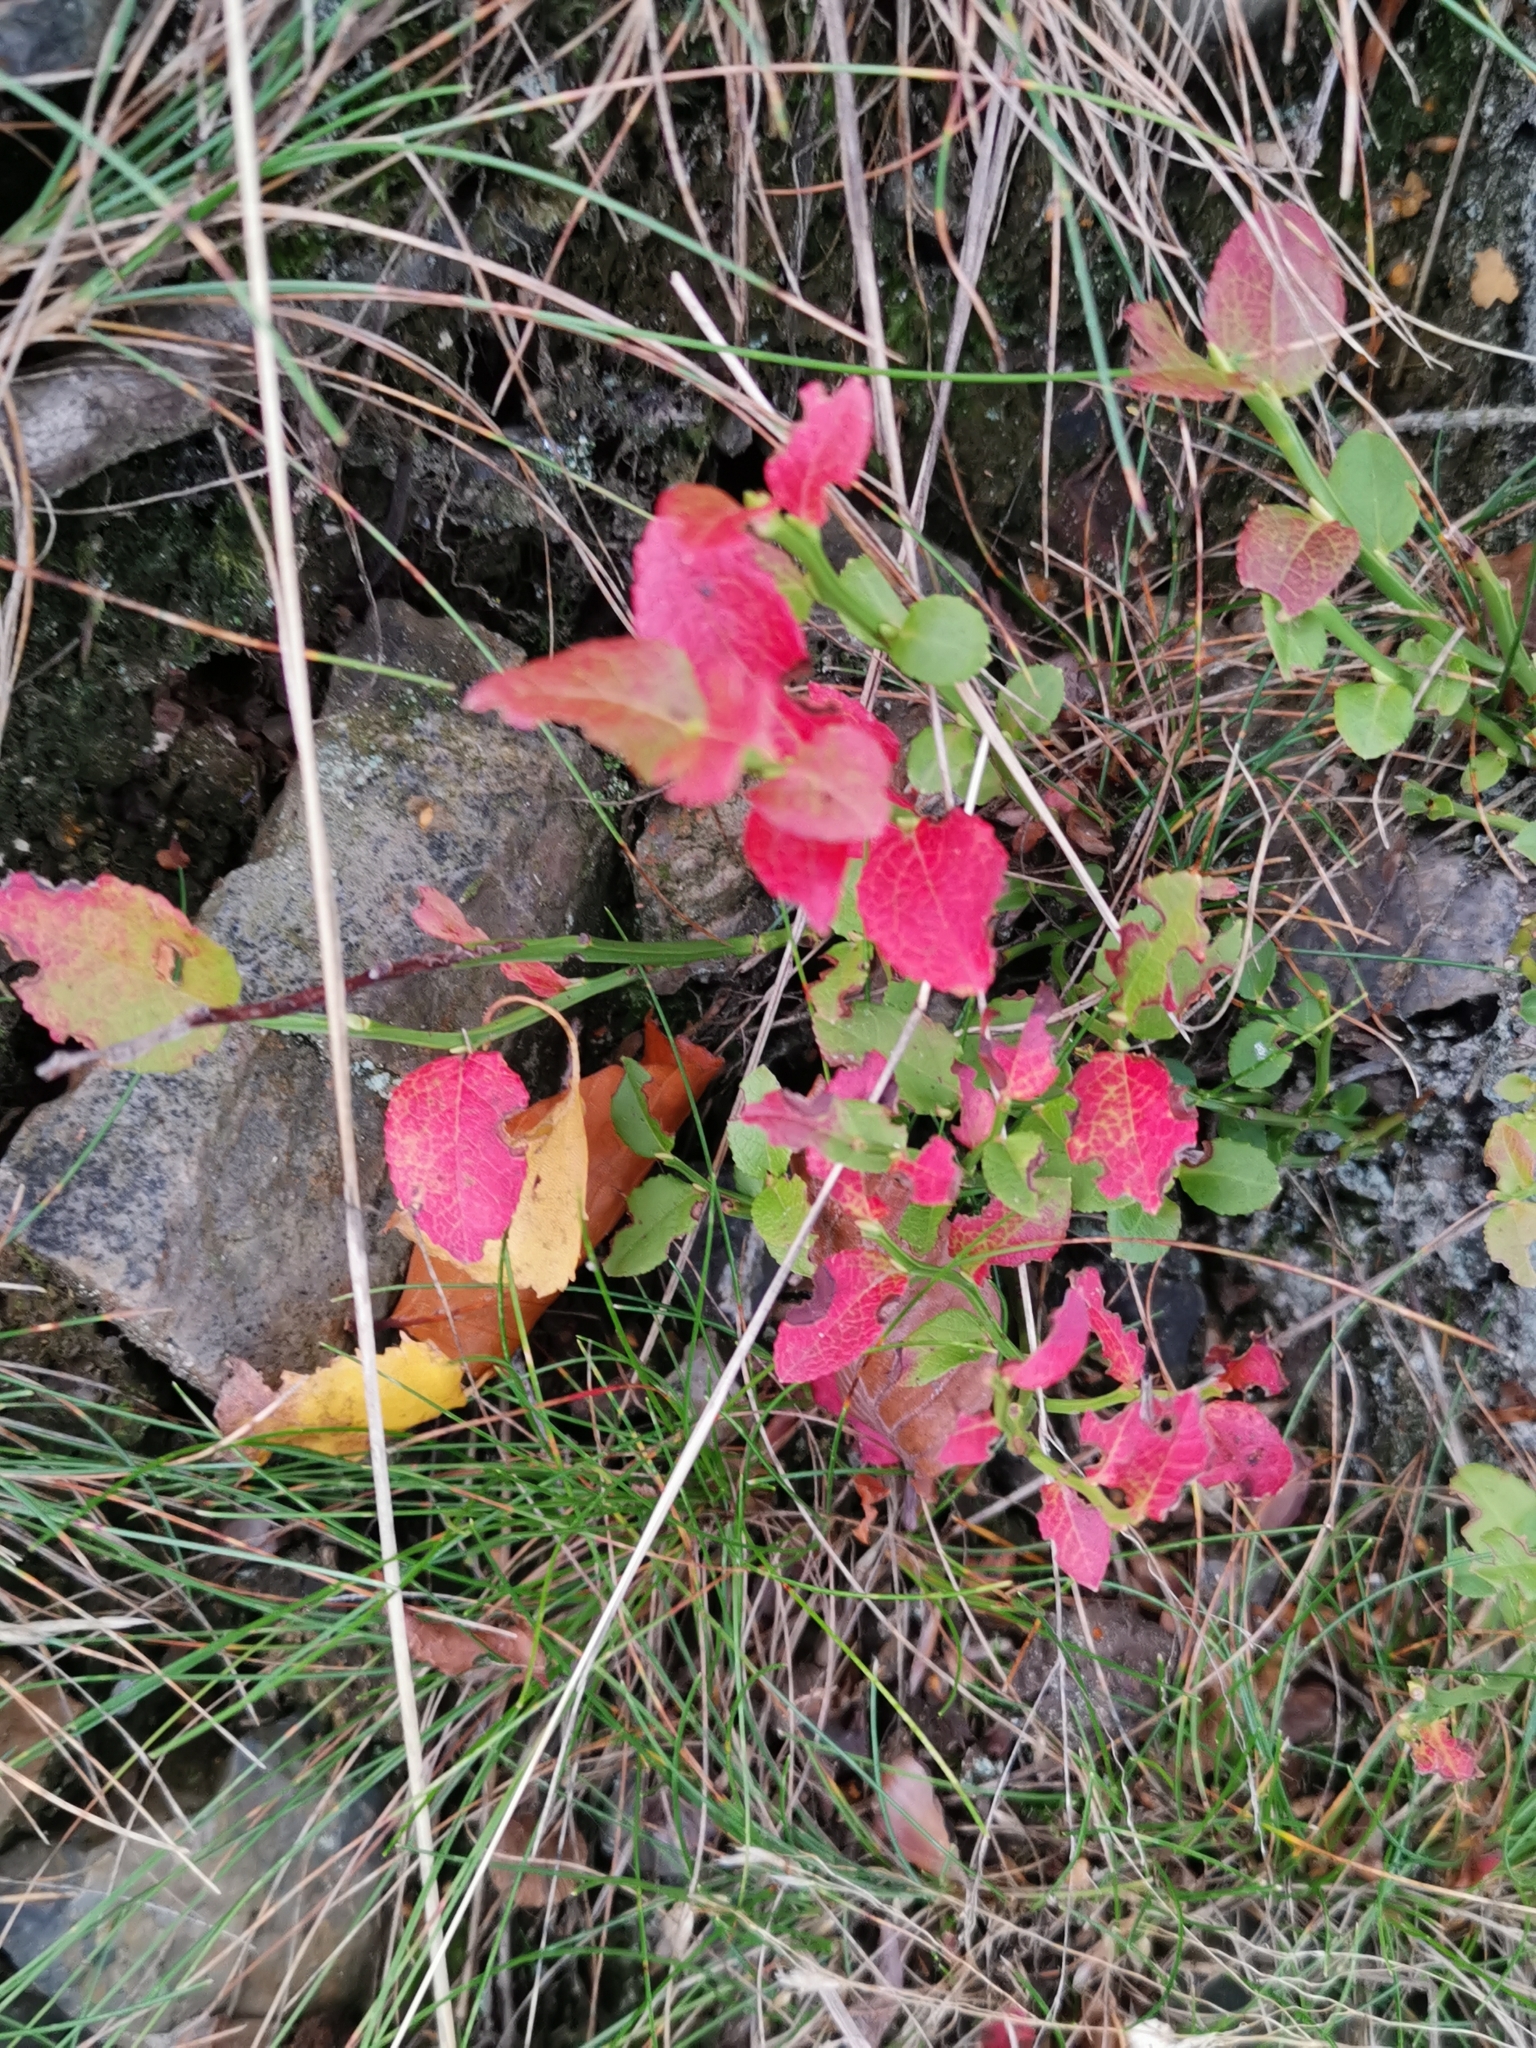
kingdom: Plantae
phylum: Tracheophyta
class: Magnoliopsida
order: Ericales
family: Ericaceae
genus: Vaccinium
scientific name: Vaccinium myrtillus
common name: Bilberry
